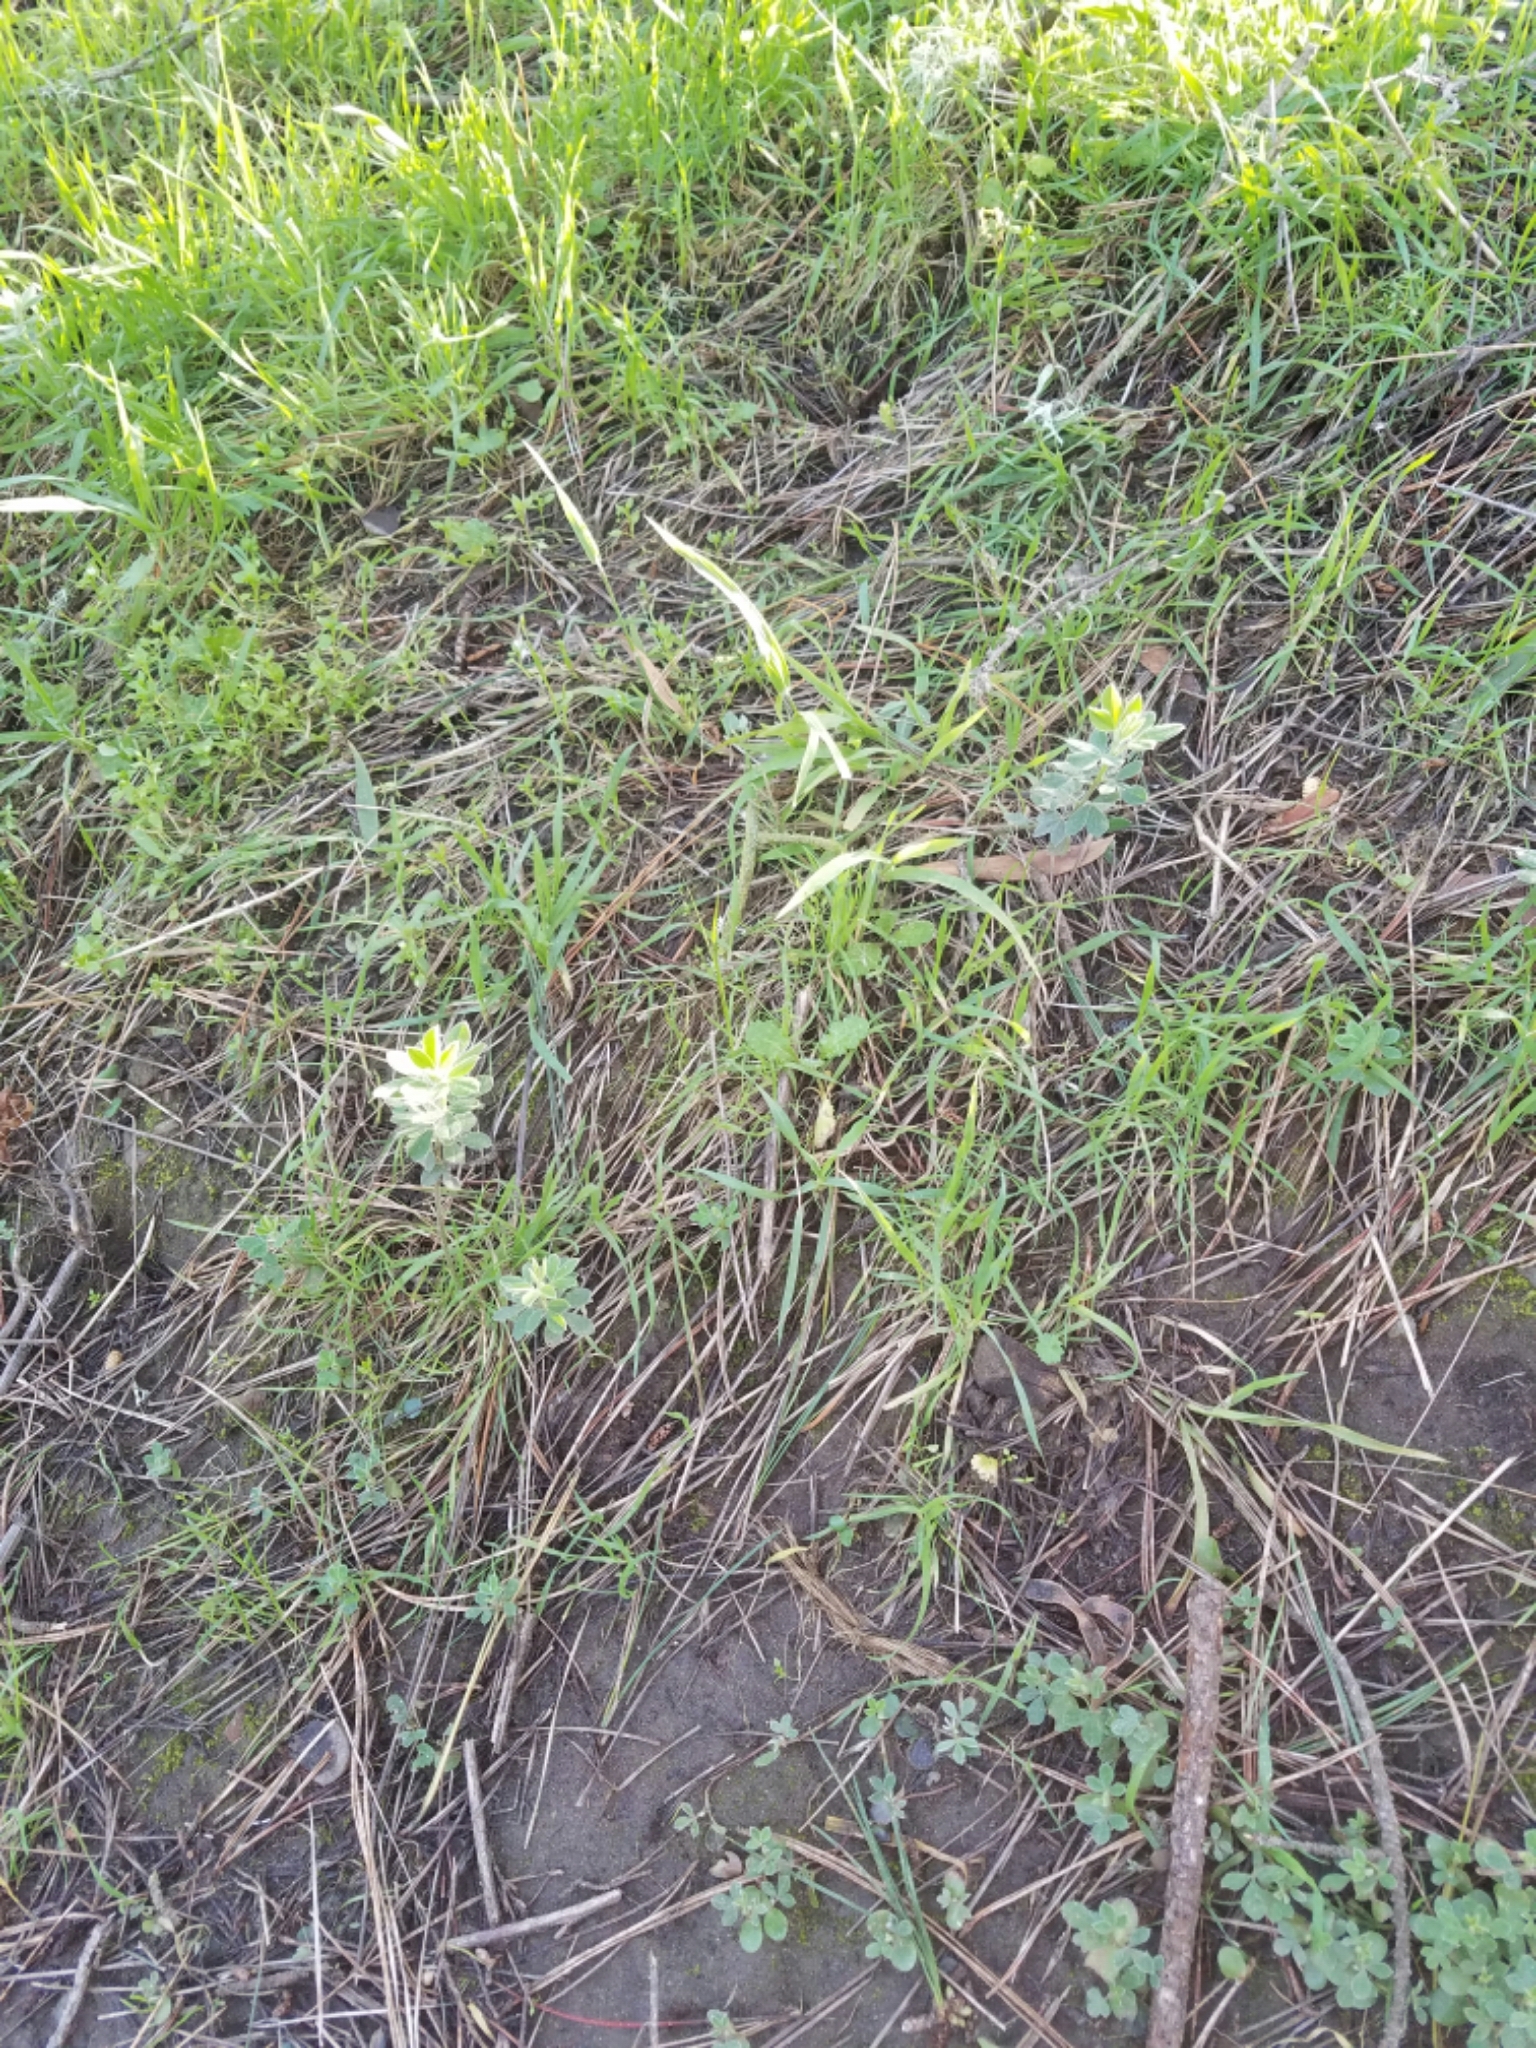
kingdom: Plantae
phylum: Tracheophyta
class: Magnoliopsida
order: Fabales
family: Fabaceae
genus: Genista
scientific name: Genista monspessulana
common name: Montpellier broom
